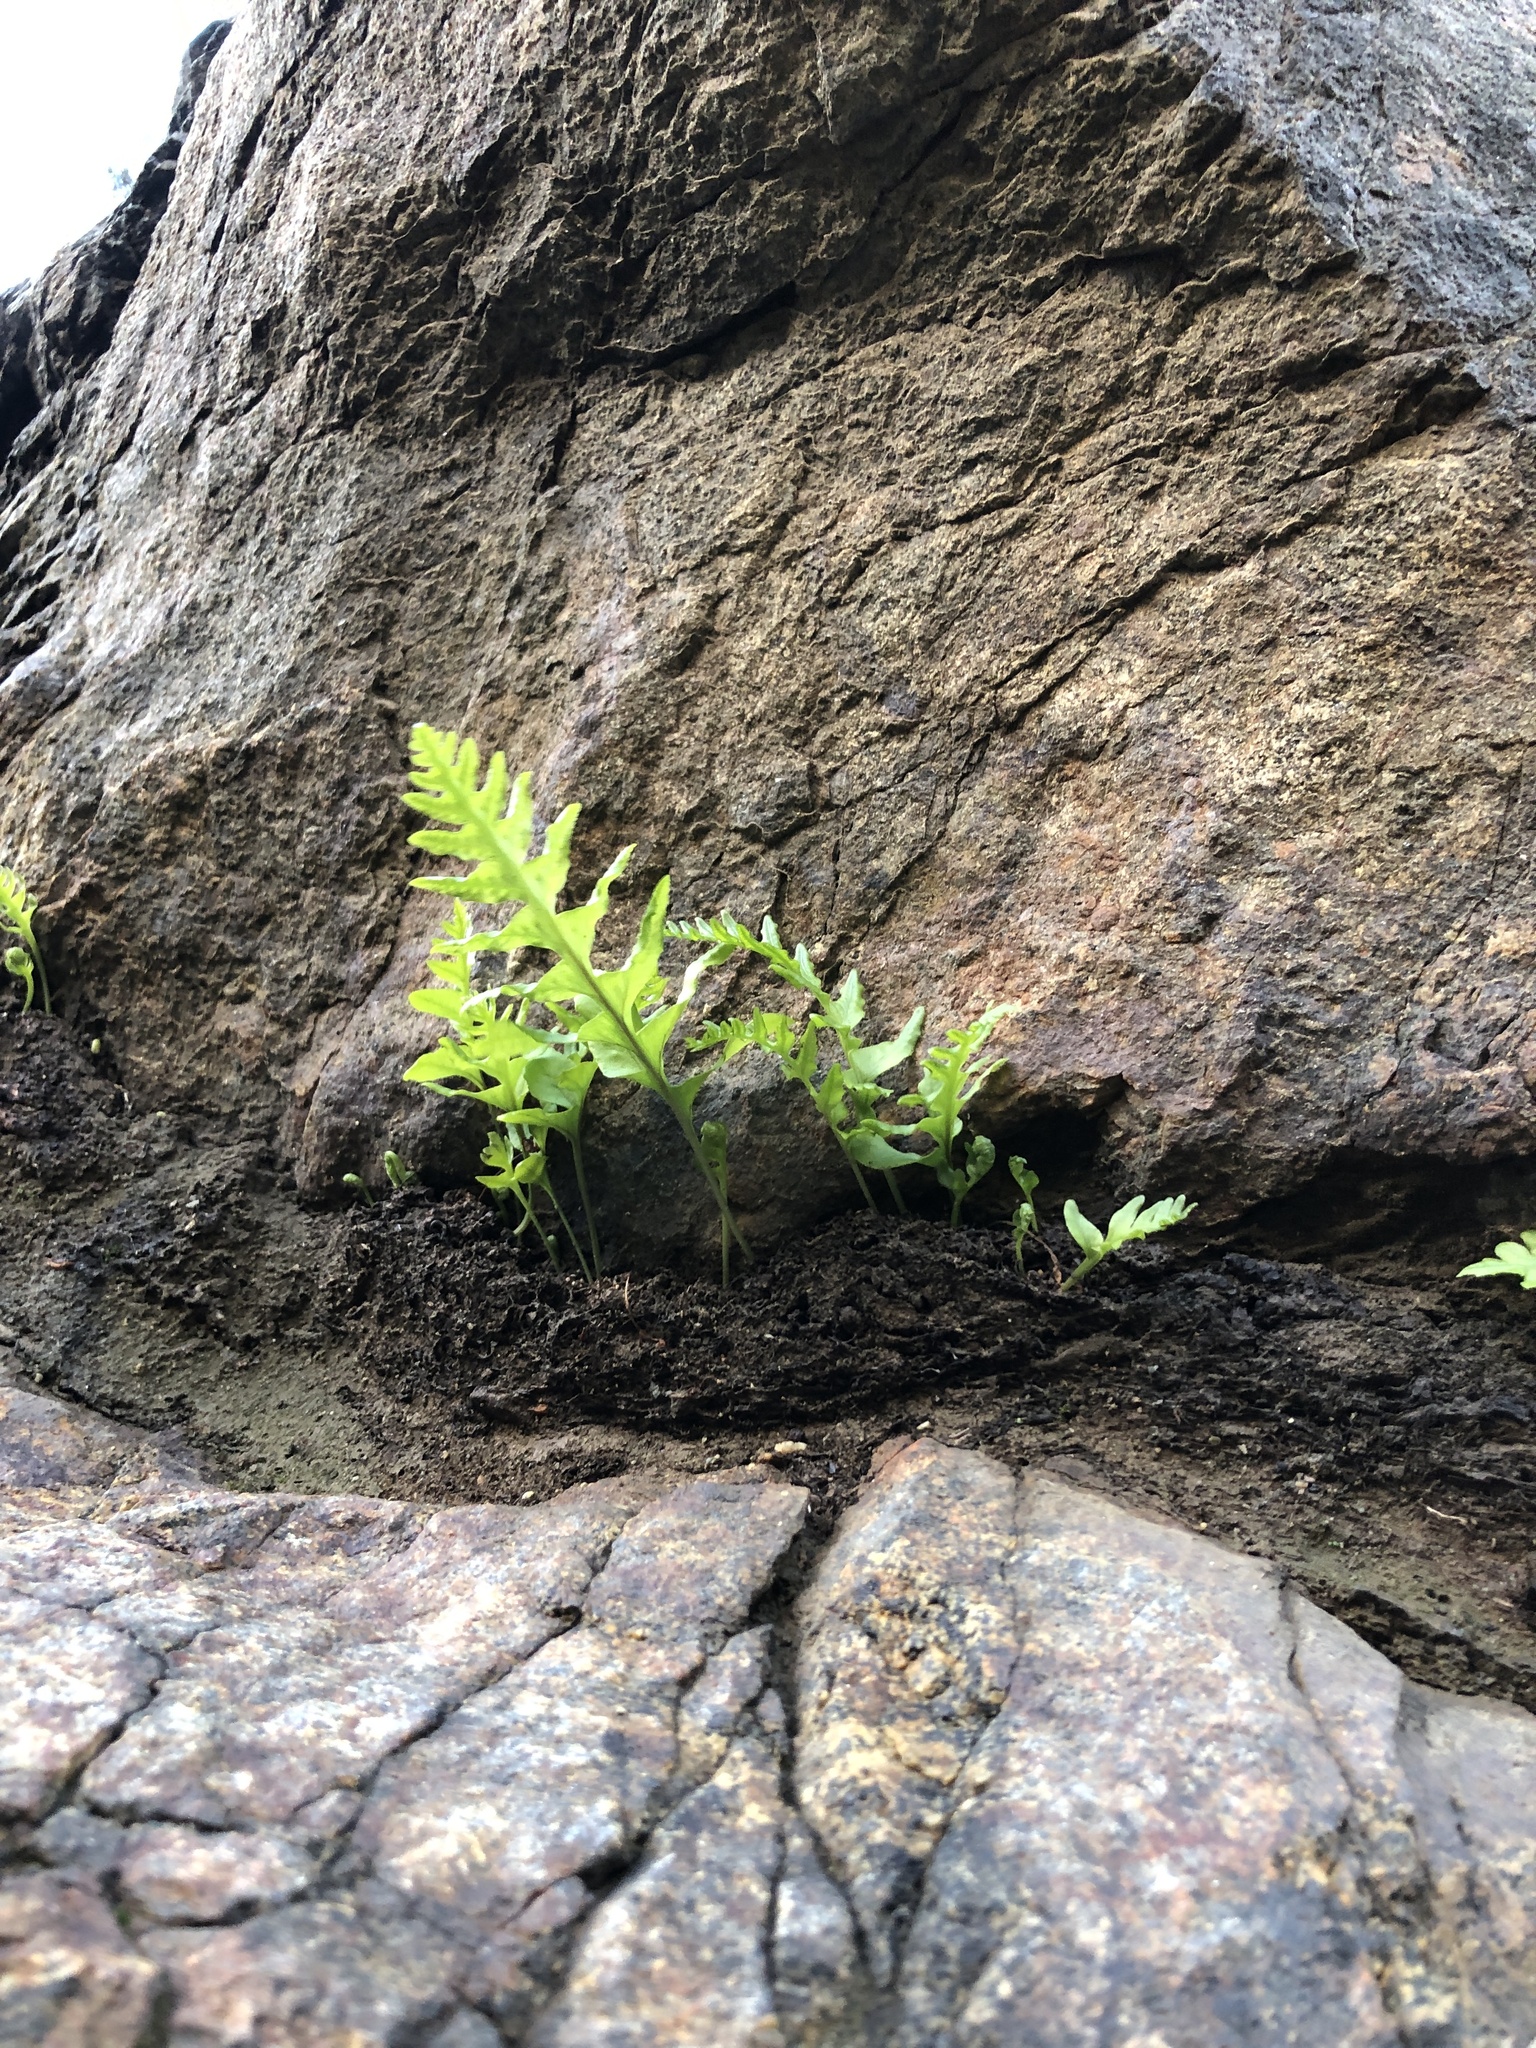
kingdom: Plantae
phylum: Tracheophyta
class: Polypodiopsida
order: Polypodiales
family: Polypodiaceae
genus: Polypodium
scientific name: Polypodium californicum
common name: California polypody
